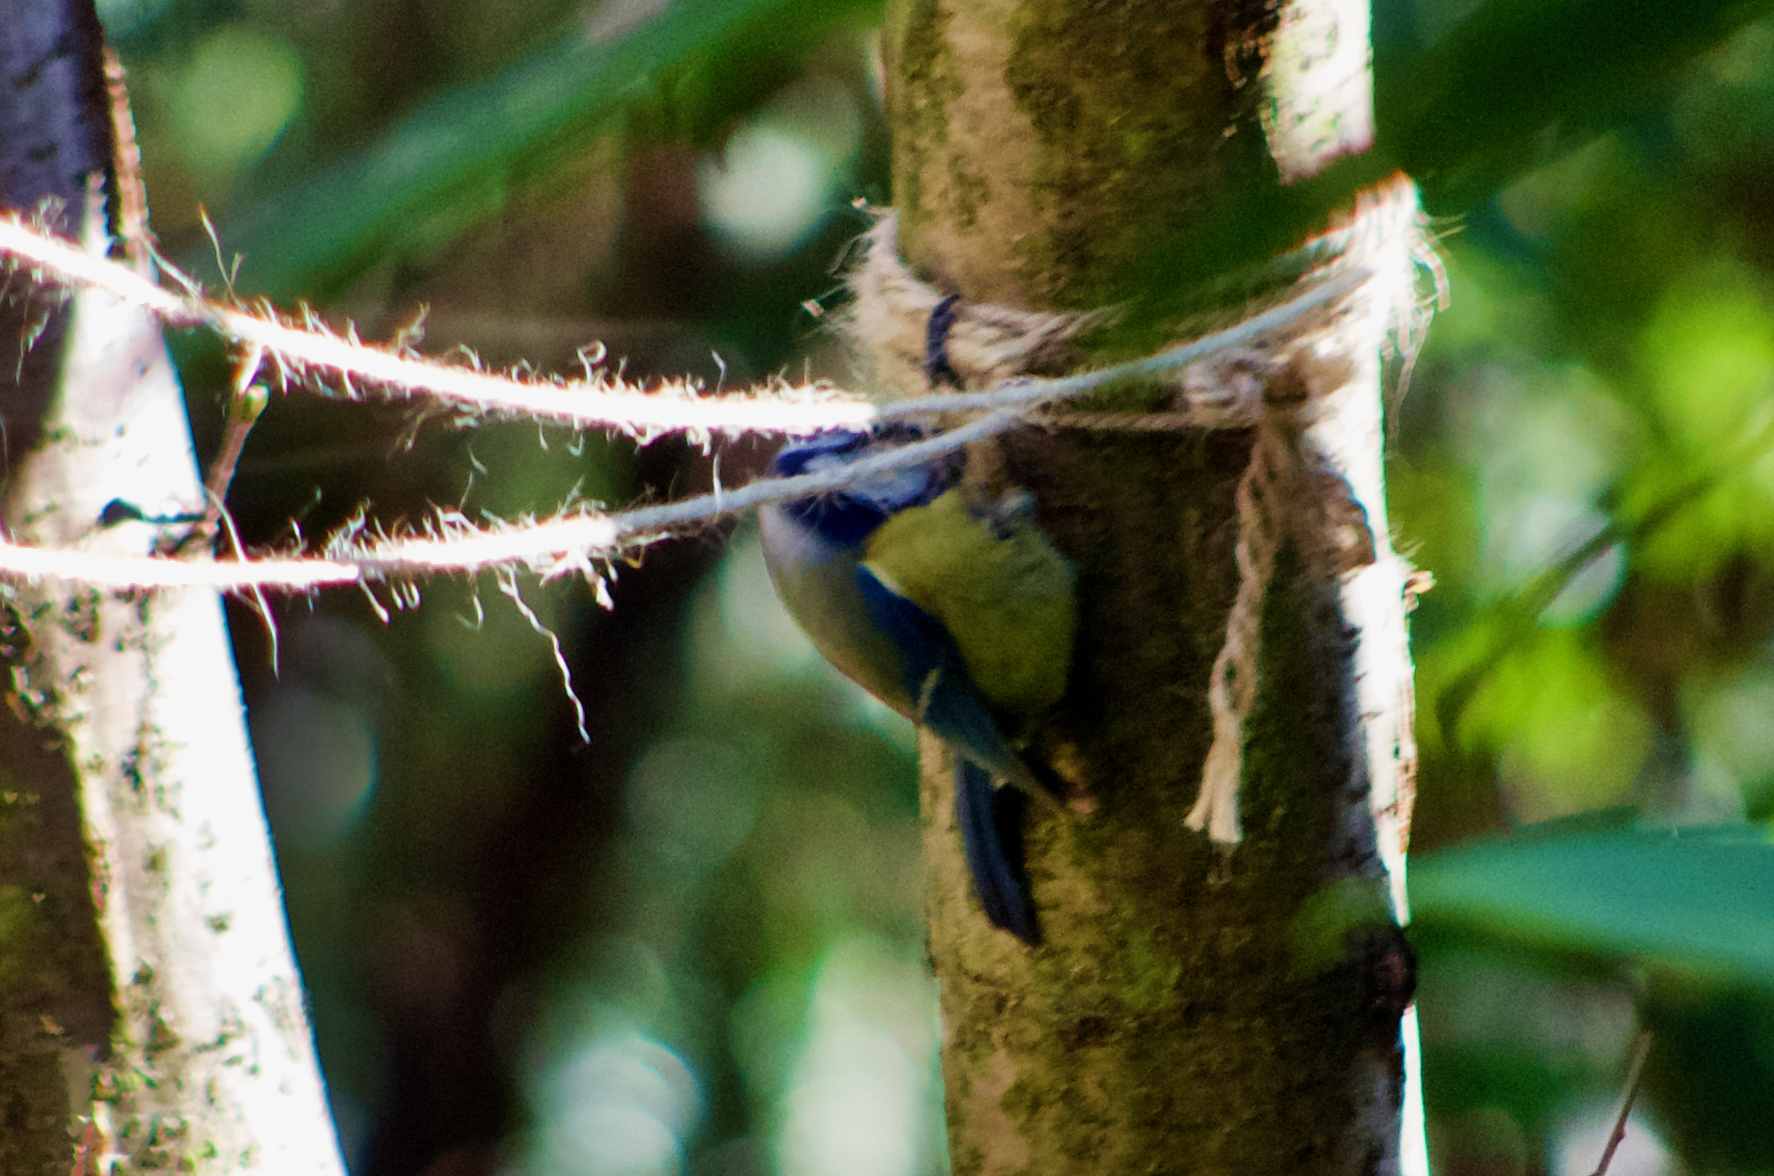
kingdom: Animalia
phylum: Chordata
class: Aves
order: Passeriformes
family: Paridae
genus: Cyanistes
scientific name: Cyanistes caeruleus
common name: Eurasian blue tit
